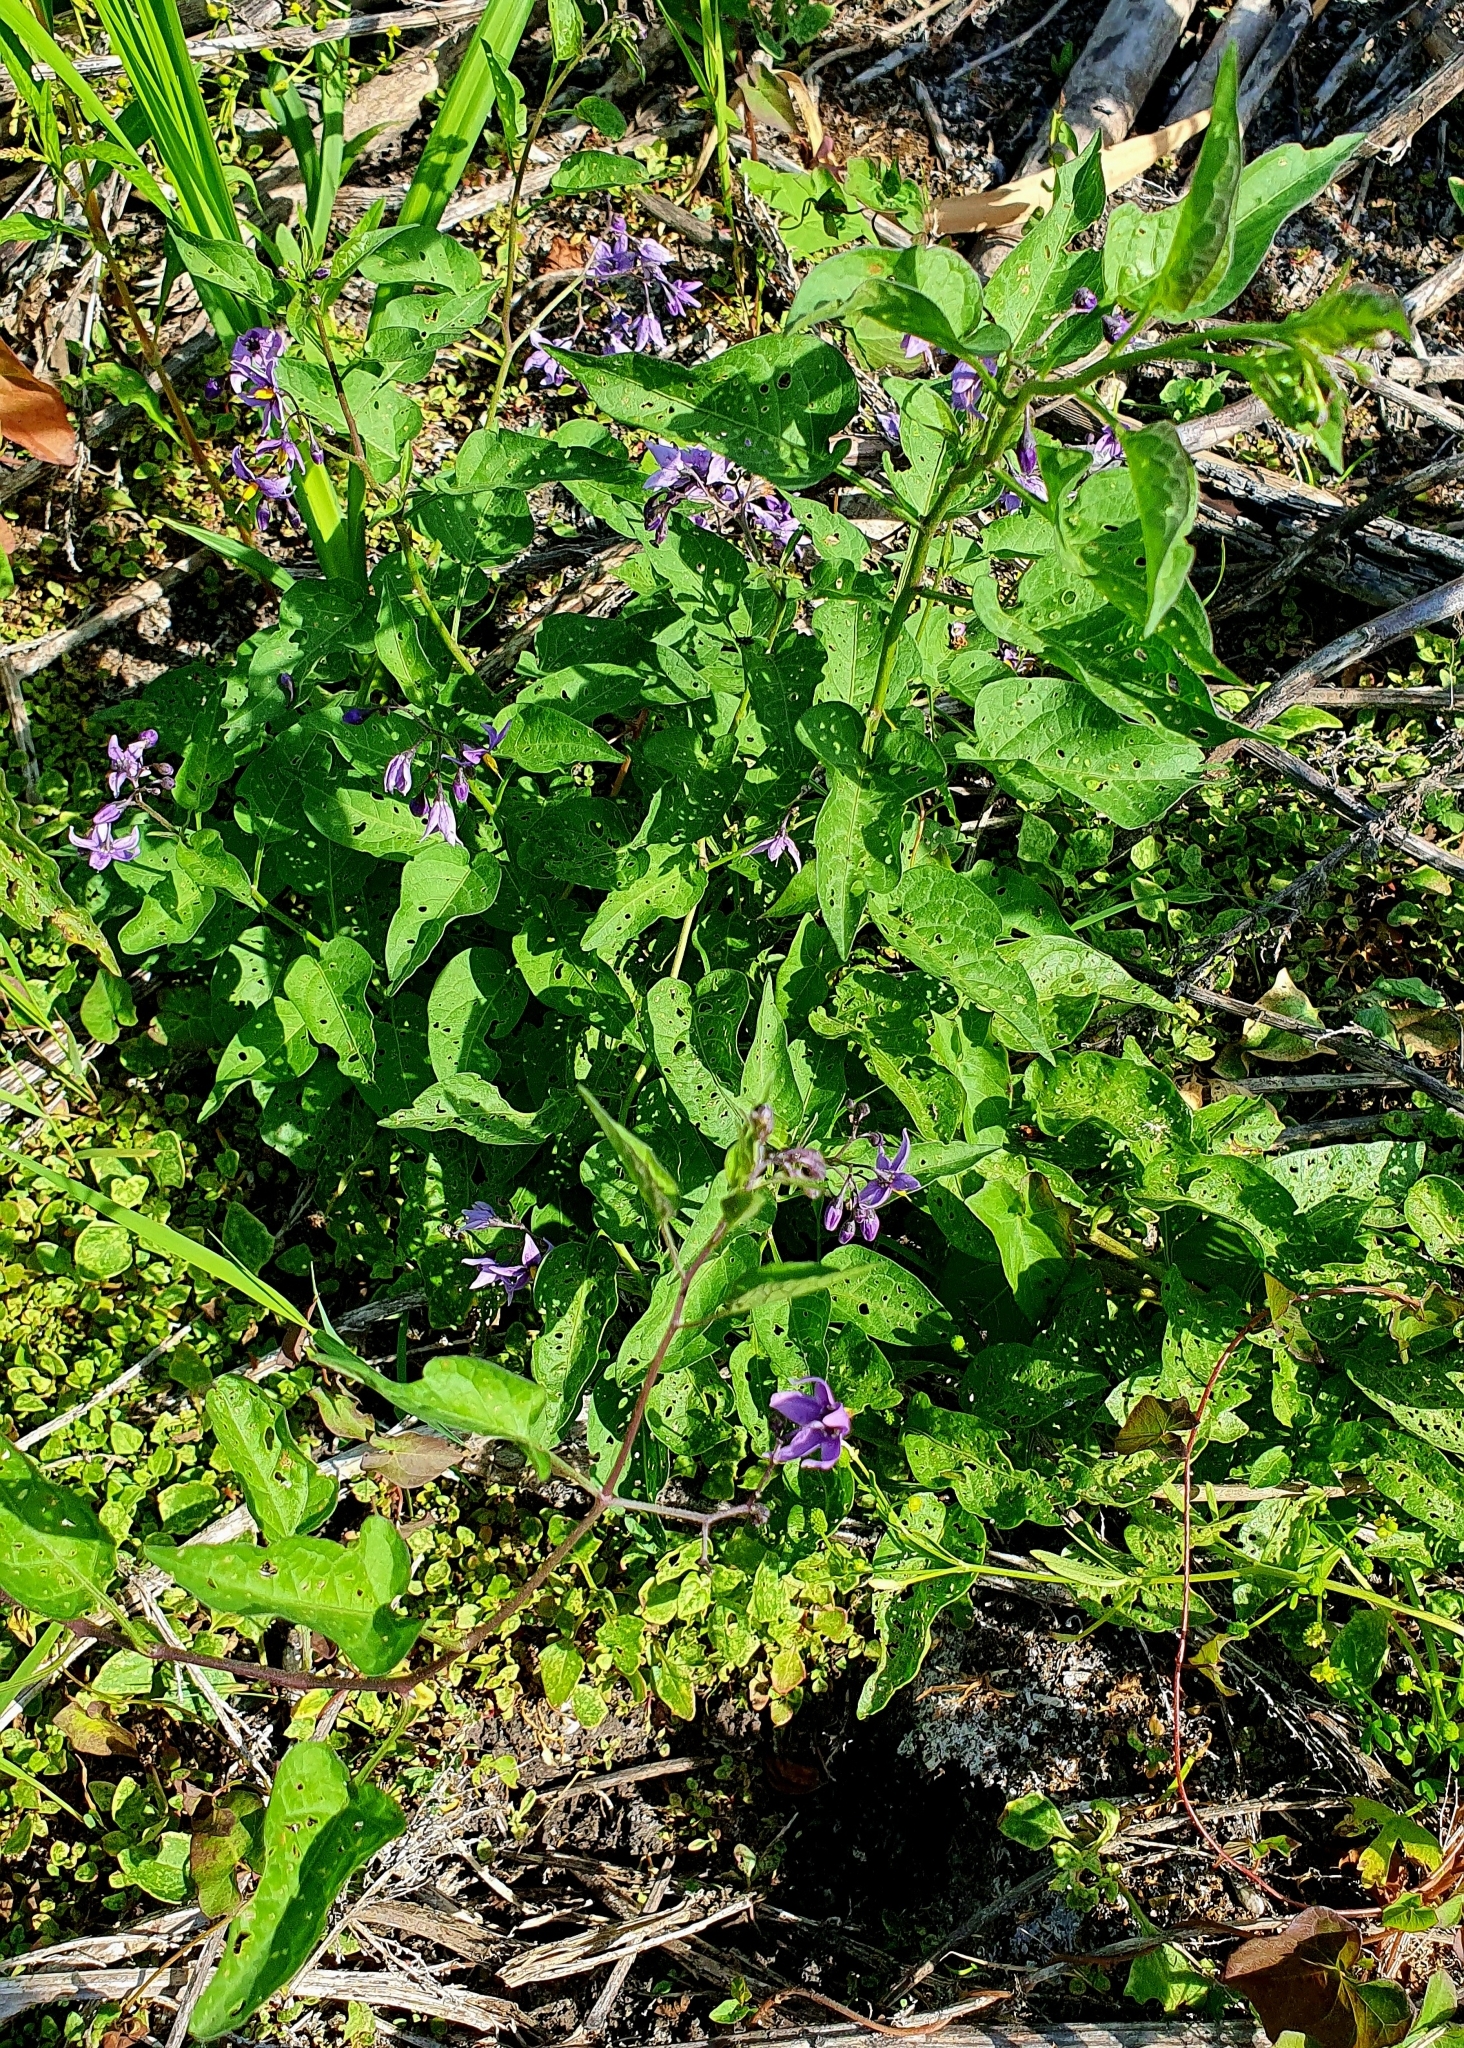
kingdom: Plantae
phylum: Tracheophyta
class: Magnoliopsida
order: Solanales
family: Solanaceae
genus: Solanum
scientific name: Solanum dulcamara
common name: Climbing nightshade
